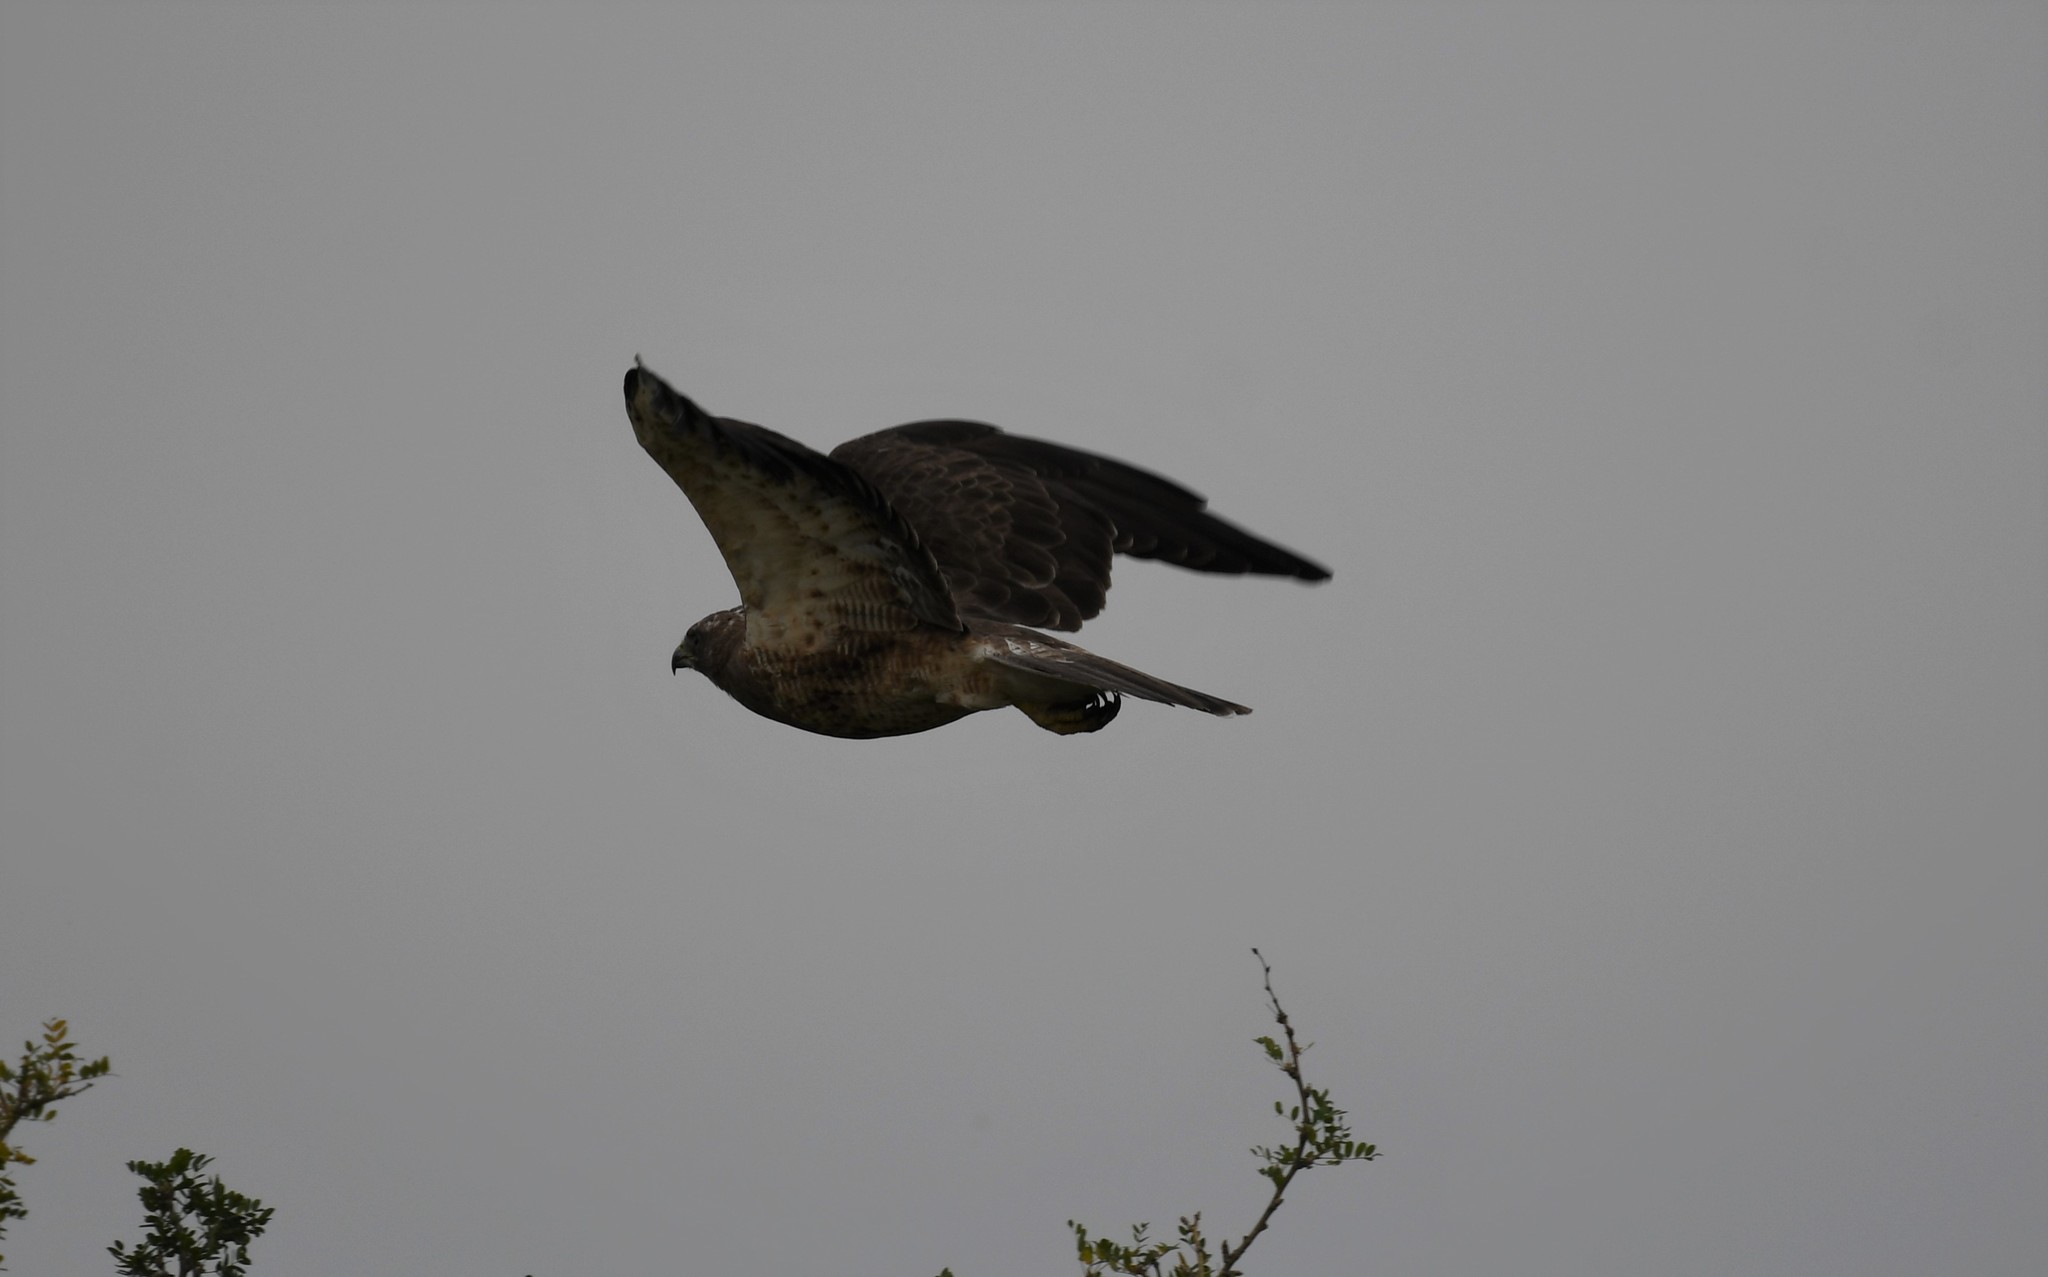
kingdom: Animalia
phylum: Chordata
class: Aves
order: Accipitriformes
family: Accipitridae
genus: Buteo
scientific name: Buteo swainsoni
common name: Swainson's hawk
